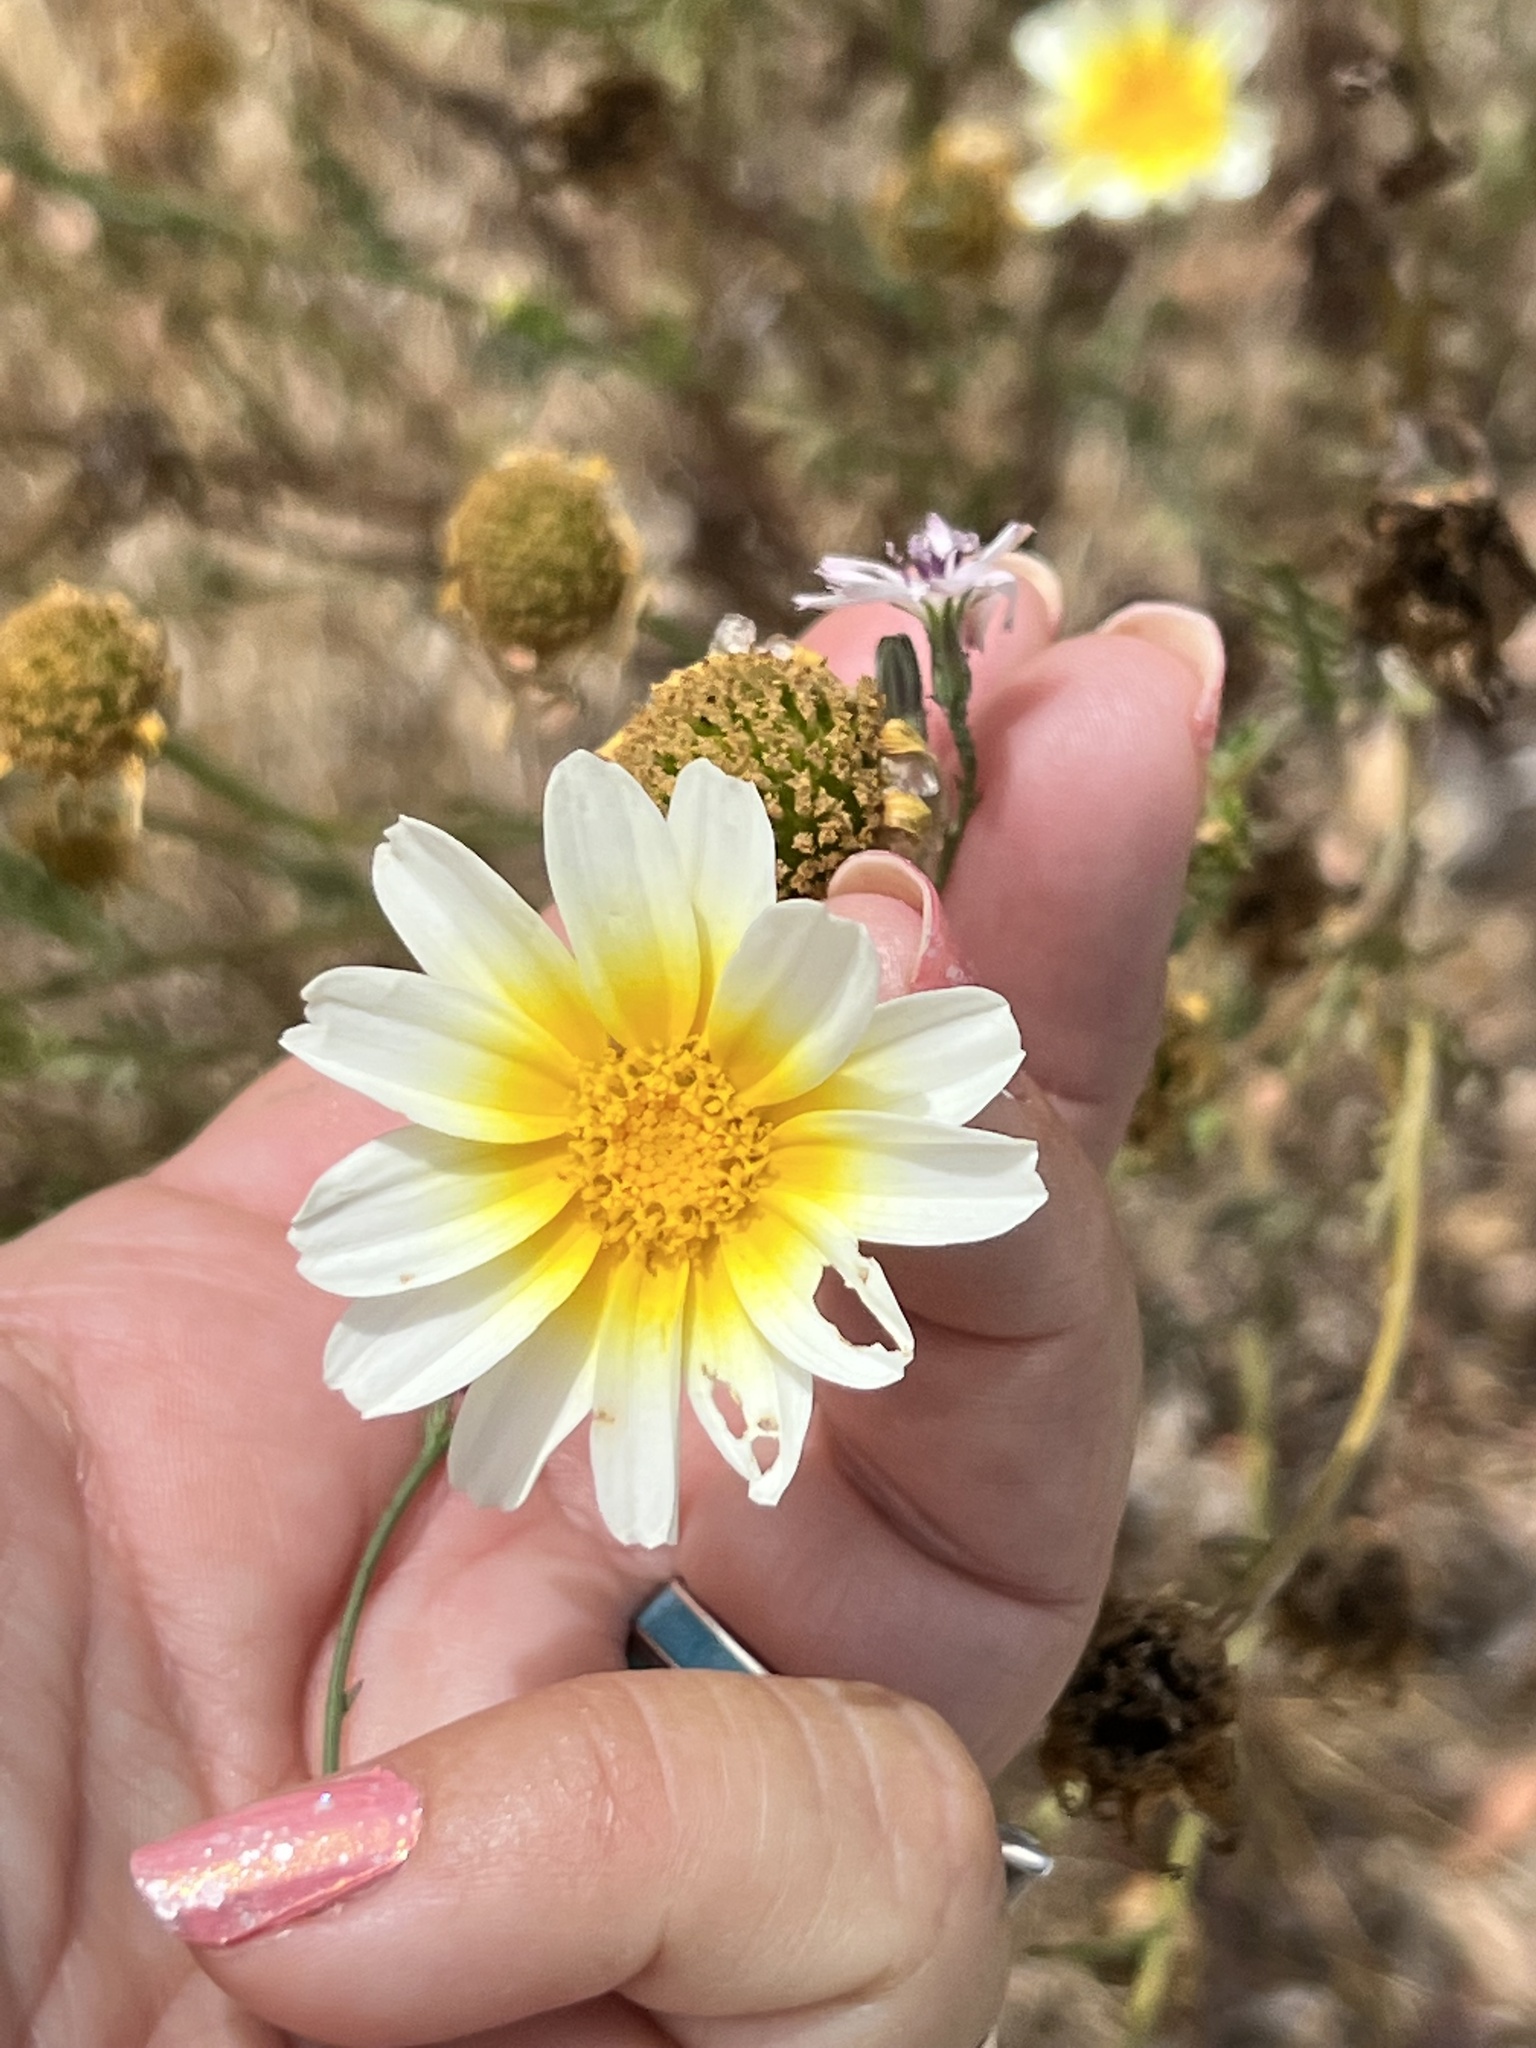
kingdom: Plantae
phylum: Tracheophyta
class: Magnoliopsida
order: Asterales
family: Asteraceae
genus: Glebionis
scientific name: Glebionis coronaria
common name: Crowndaisy
